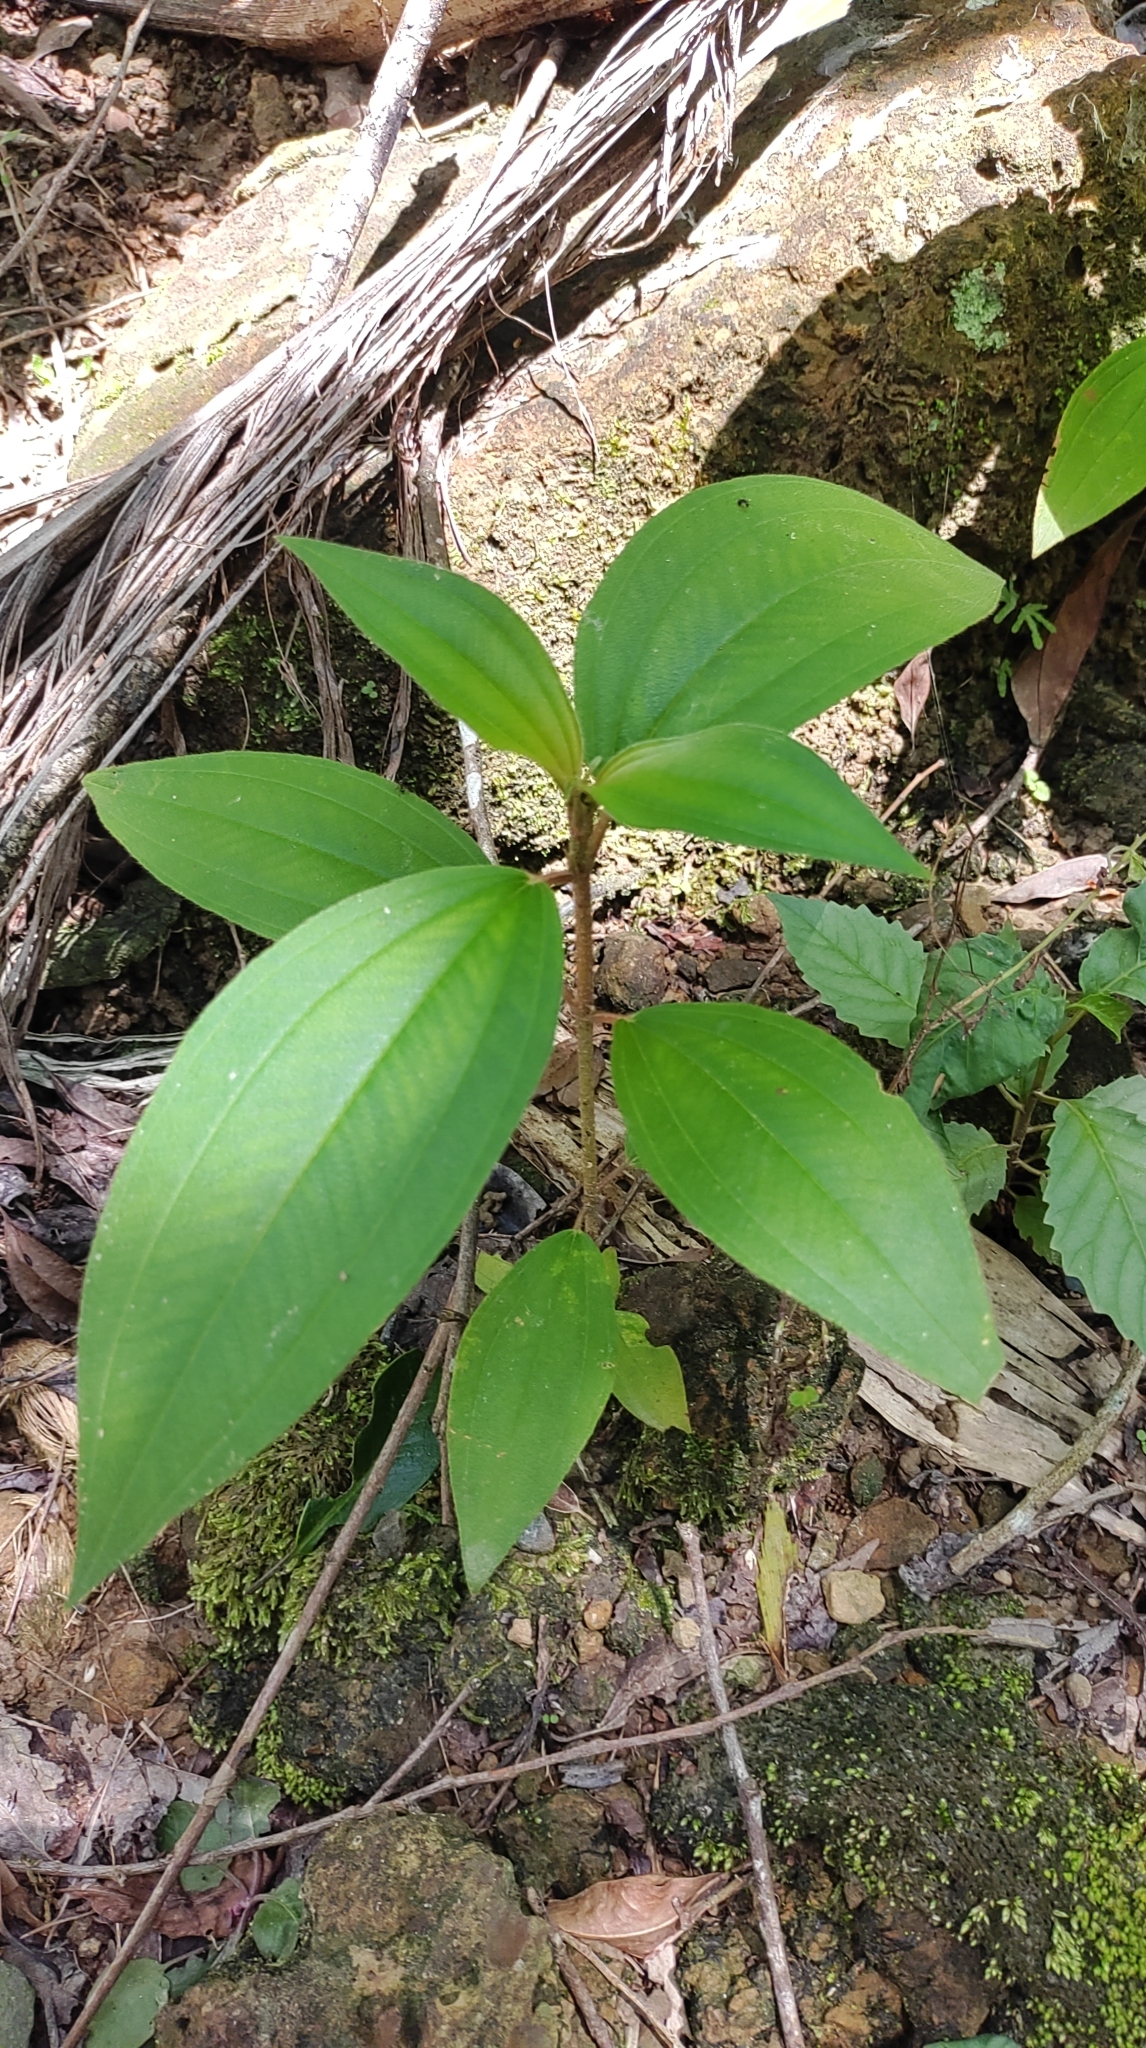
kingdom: Plantae
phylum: Tracheophyta
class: Magnoliopsida
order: Myrtales
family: Melastomataceae
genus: Melastoma
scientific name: Melastoma malabathricum
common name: Indian-rhododendron
